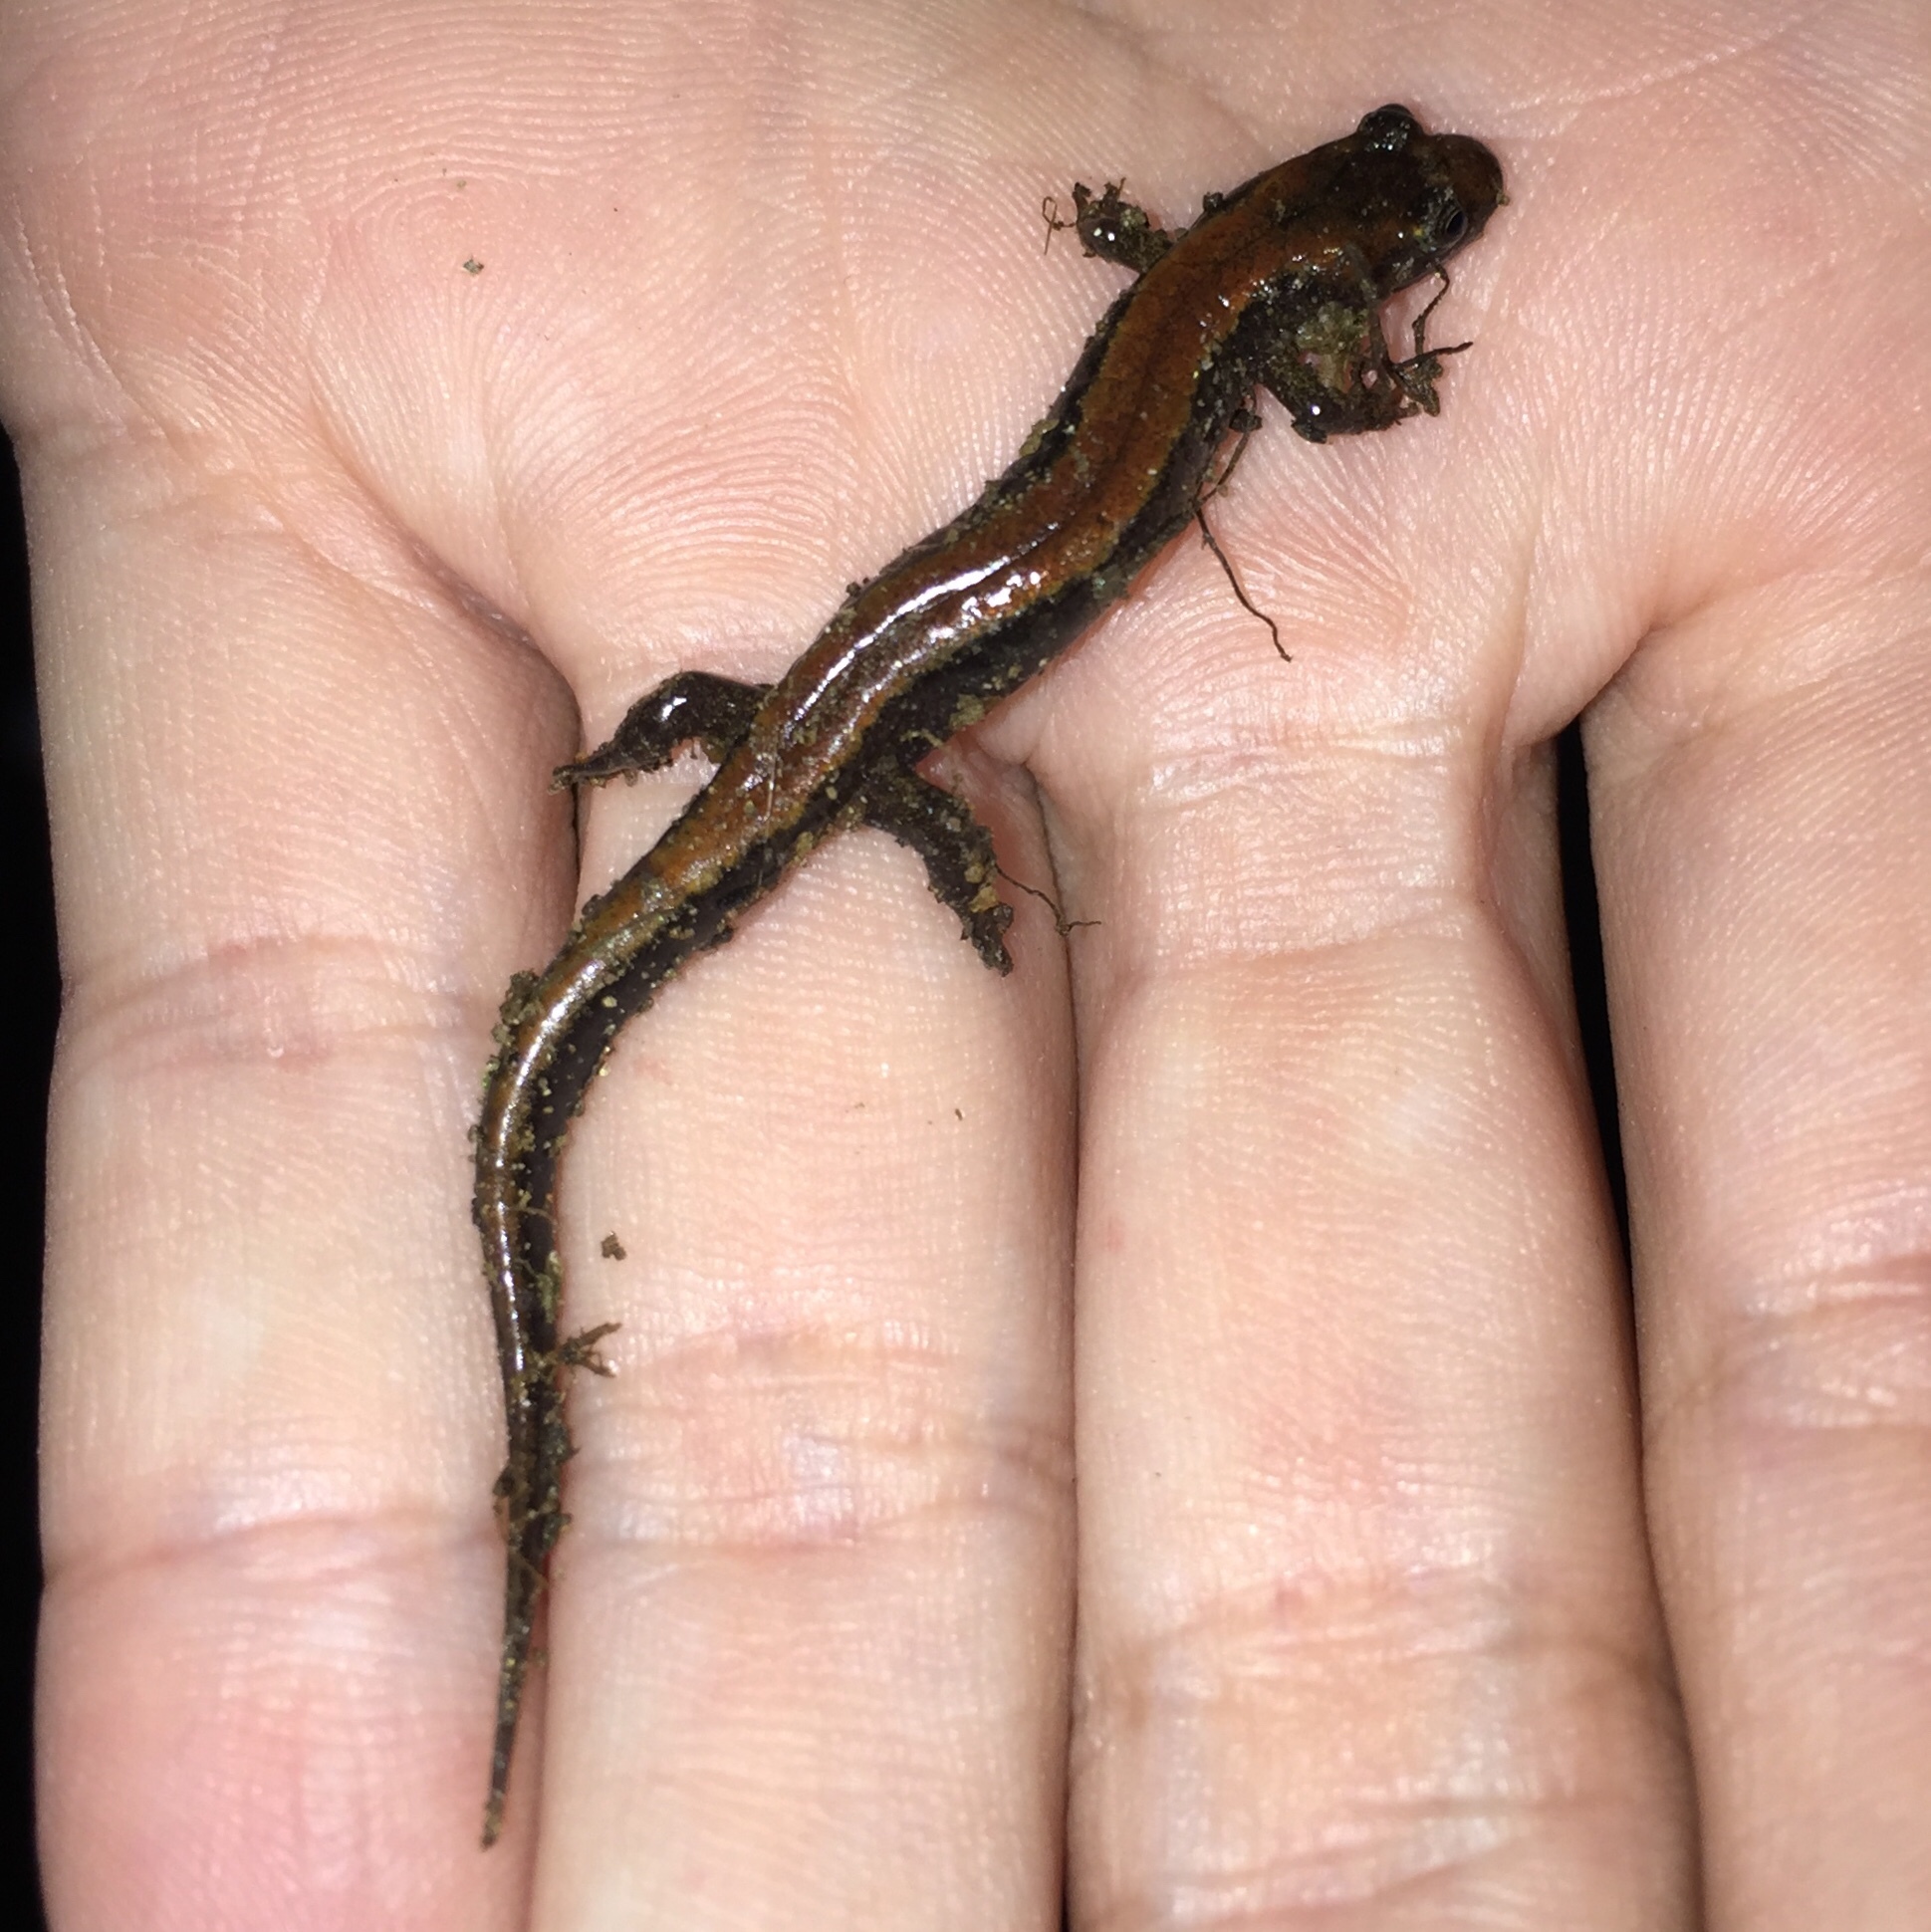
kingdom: Animalia
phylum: Chordata
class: Amphibia
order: Caudata
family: Plethodontidae
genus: Desmognathus
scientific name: Desmognathus carolinensis
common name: Carolina mountain dusky salamander
